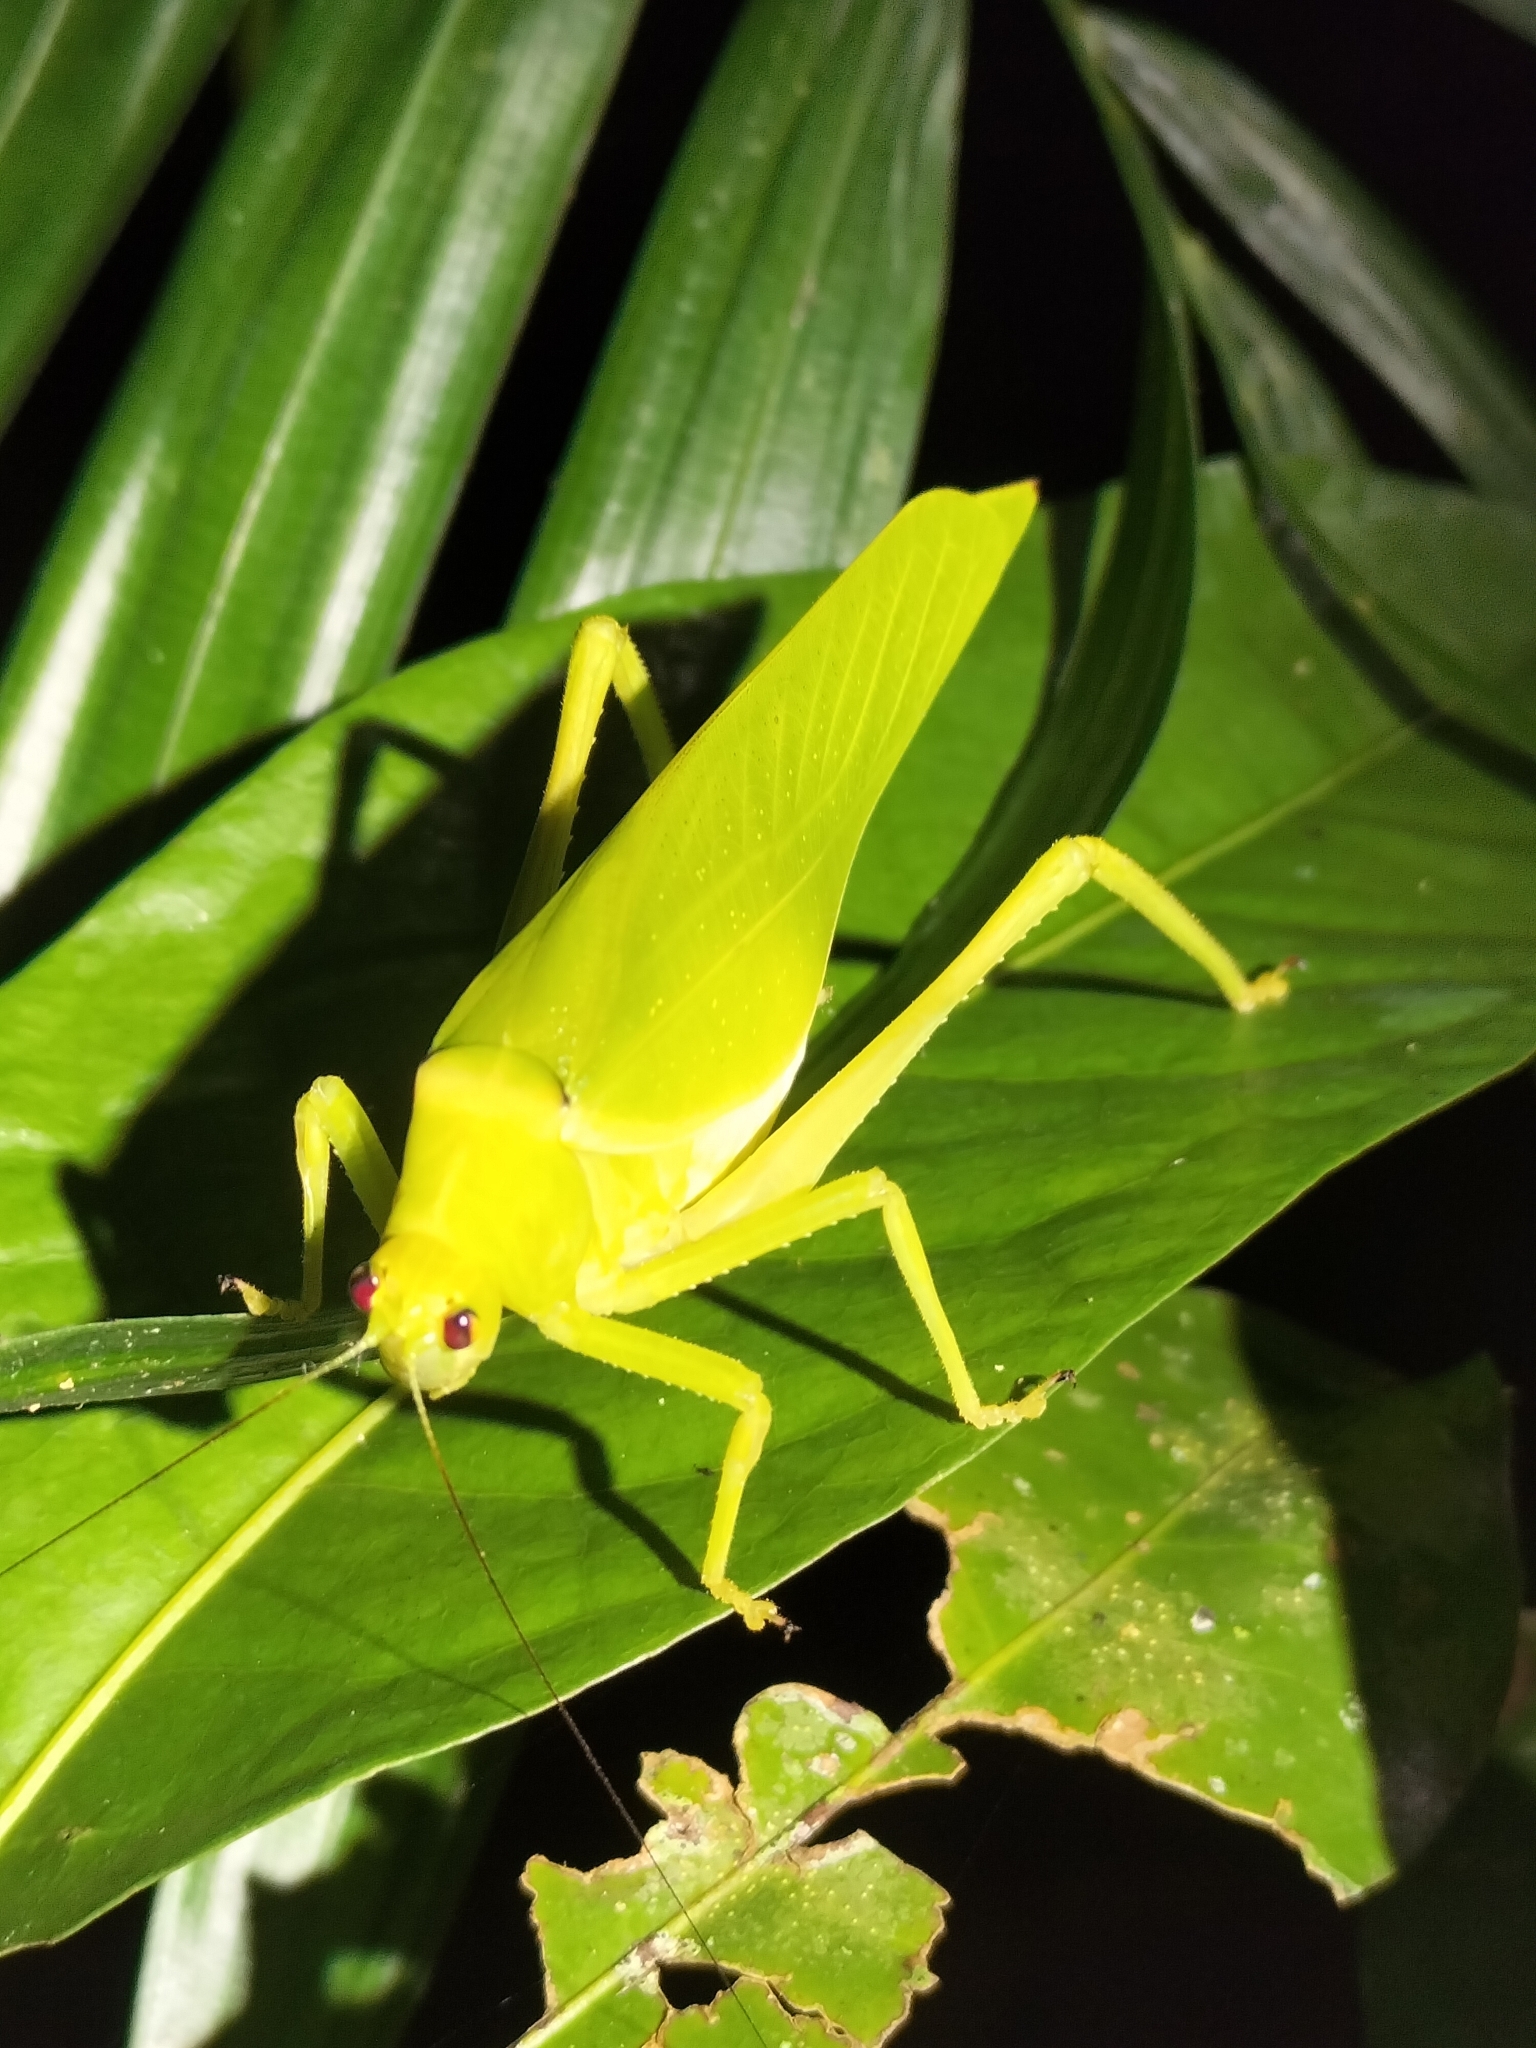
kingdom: Animalia
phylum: Arthropoda
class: Insecta
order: Orthoptera
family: Tettigoniidae
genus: Paracaedicia
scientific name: Paracaedicia serrata
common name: Serrated bush katydid
